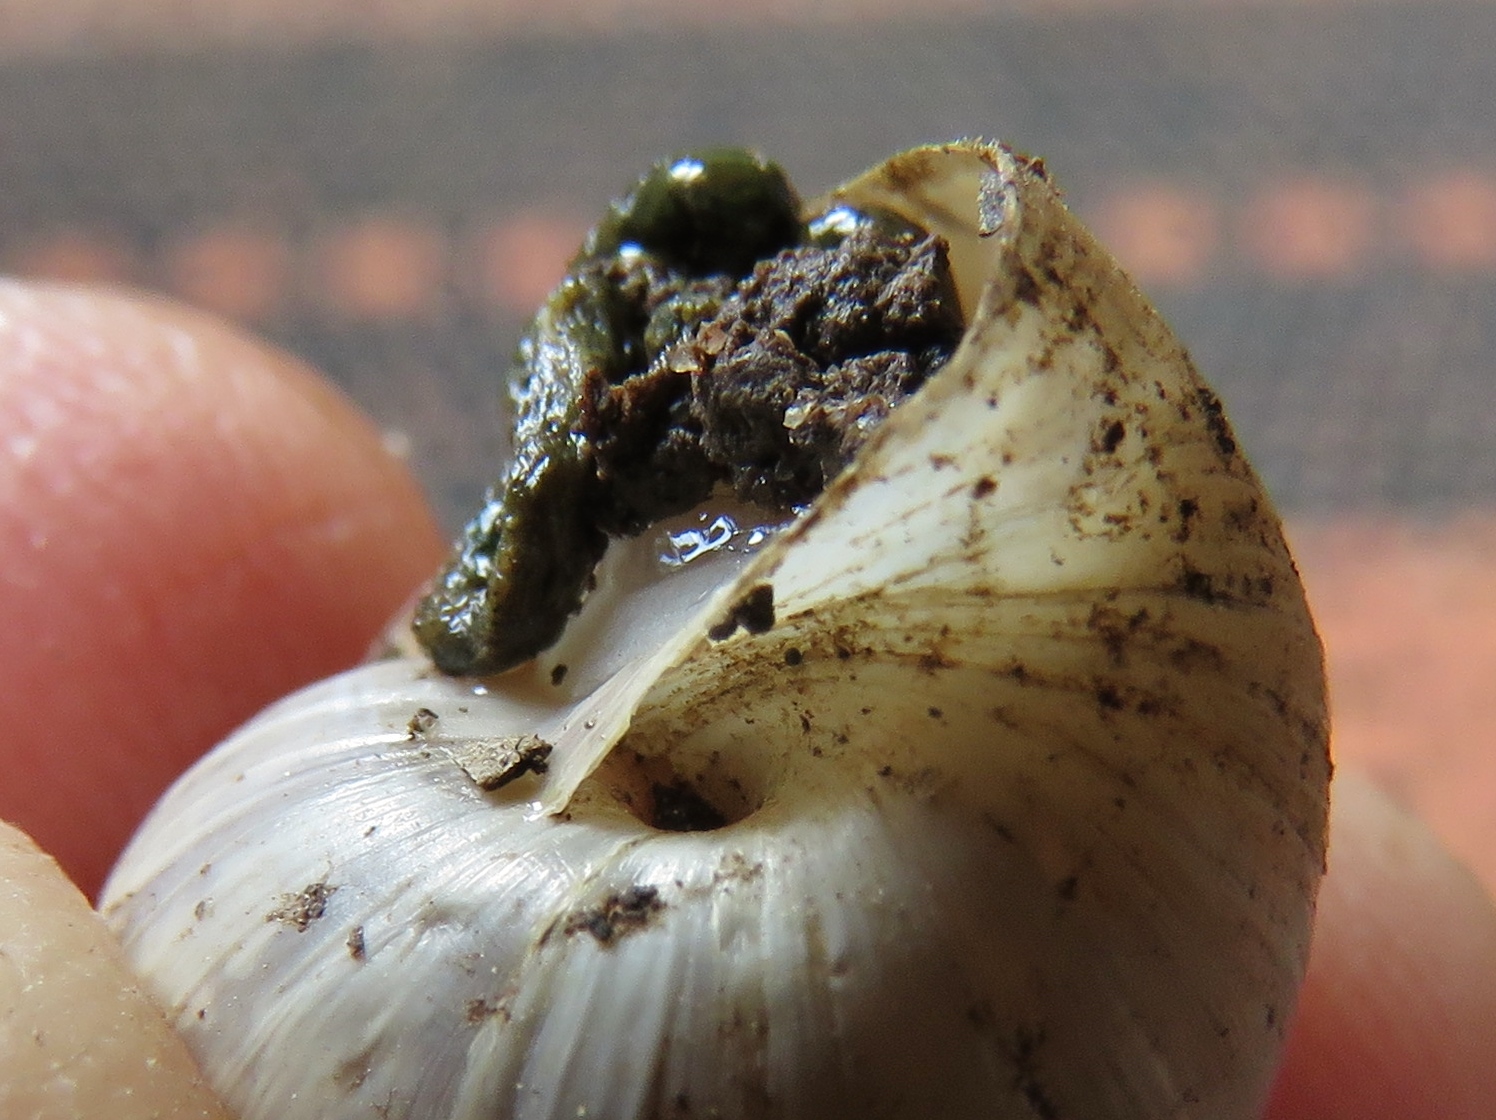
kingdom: Animalia
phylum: Mollusca
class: Gastropoda
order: Stylommatophora
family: Bulimulidae
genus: Rabdotus
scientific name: Rabdotus dealbatus
